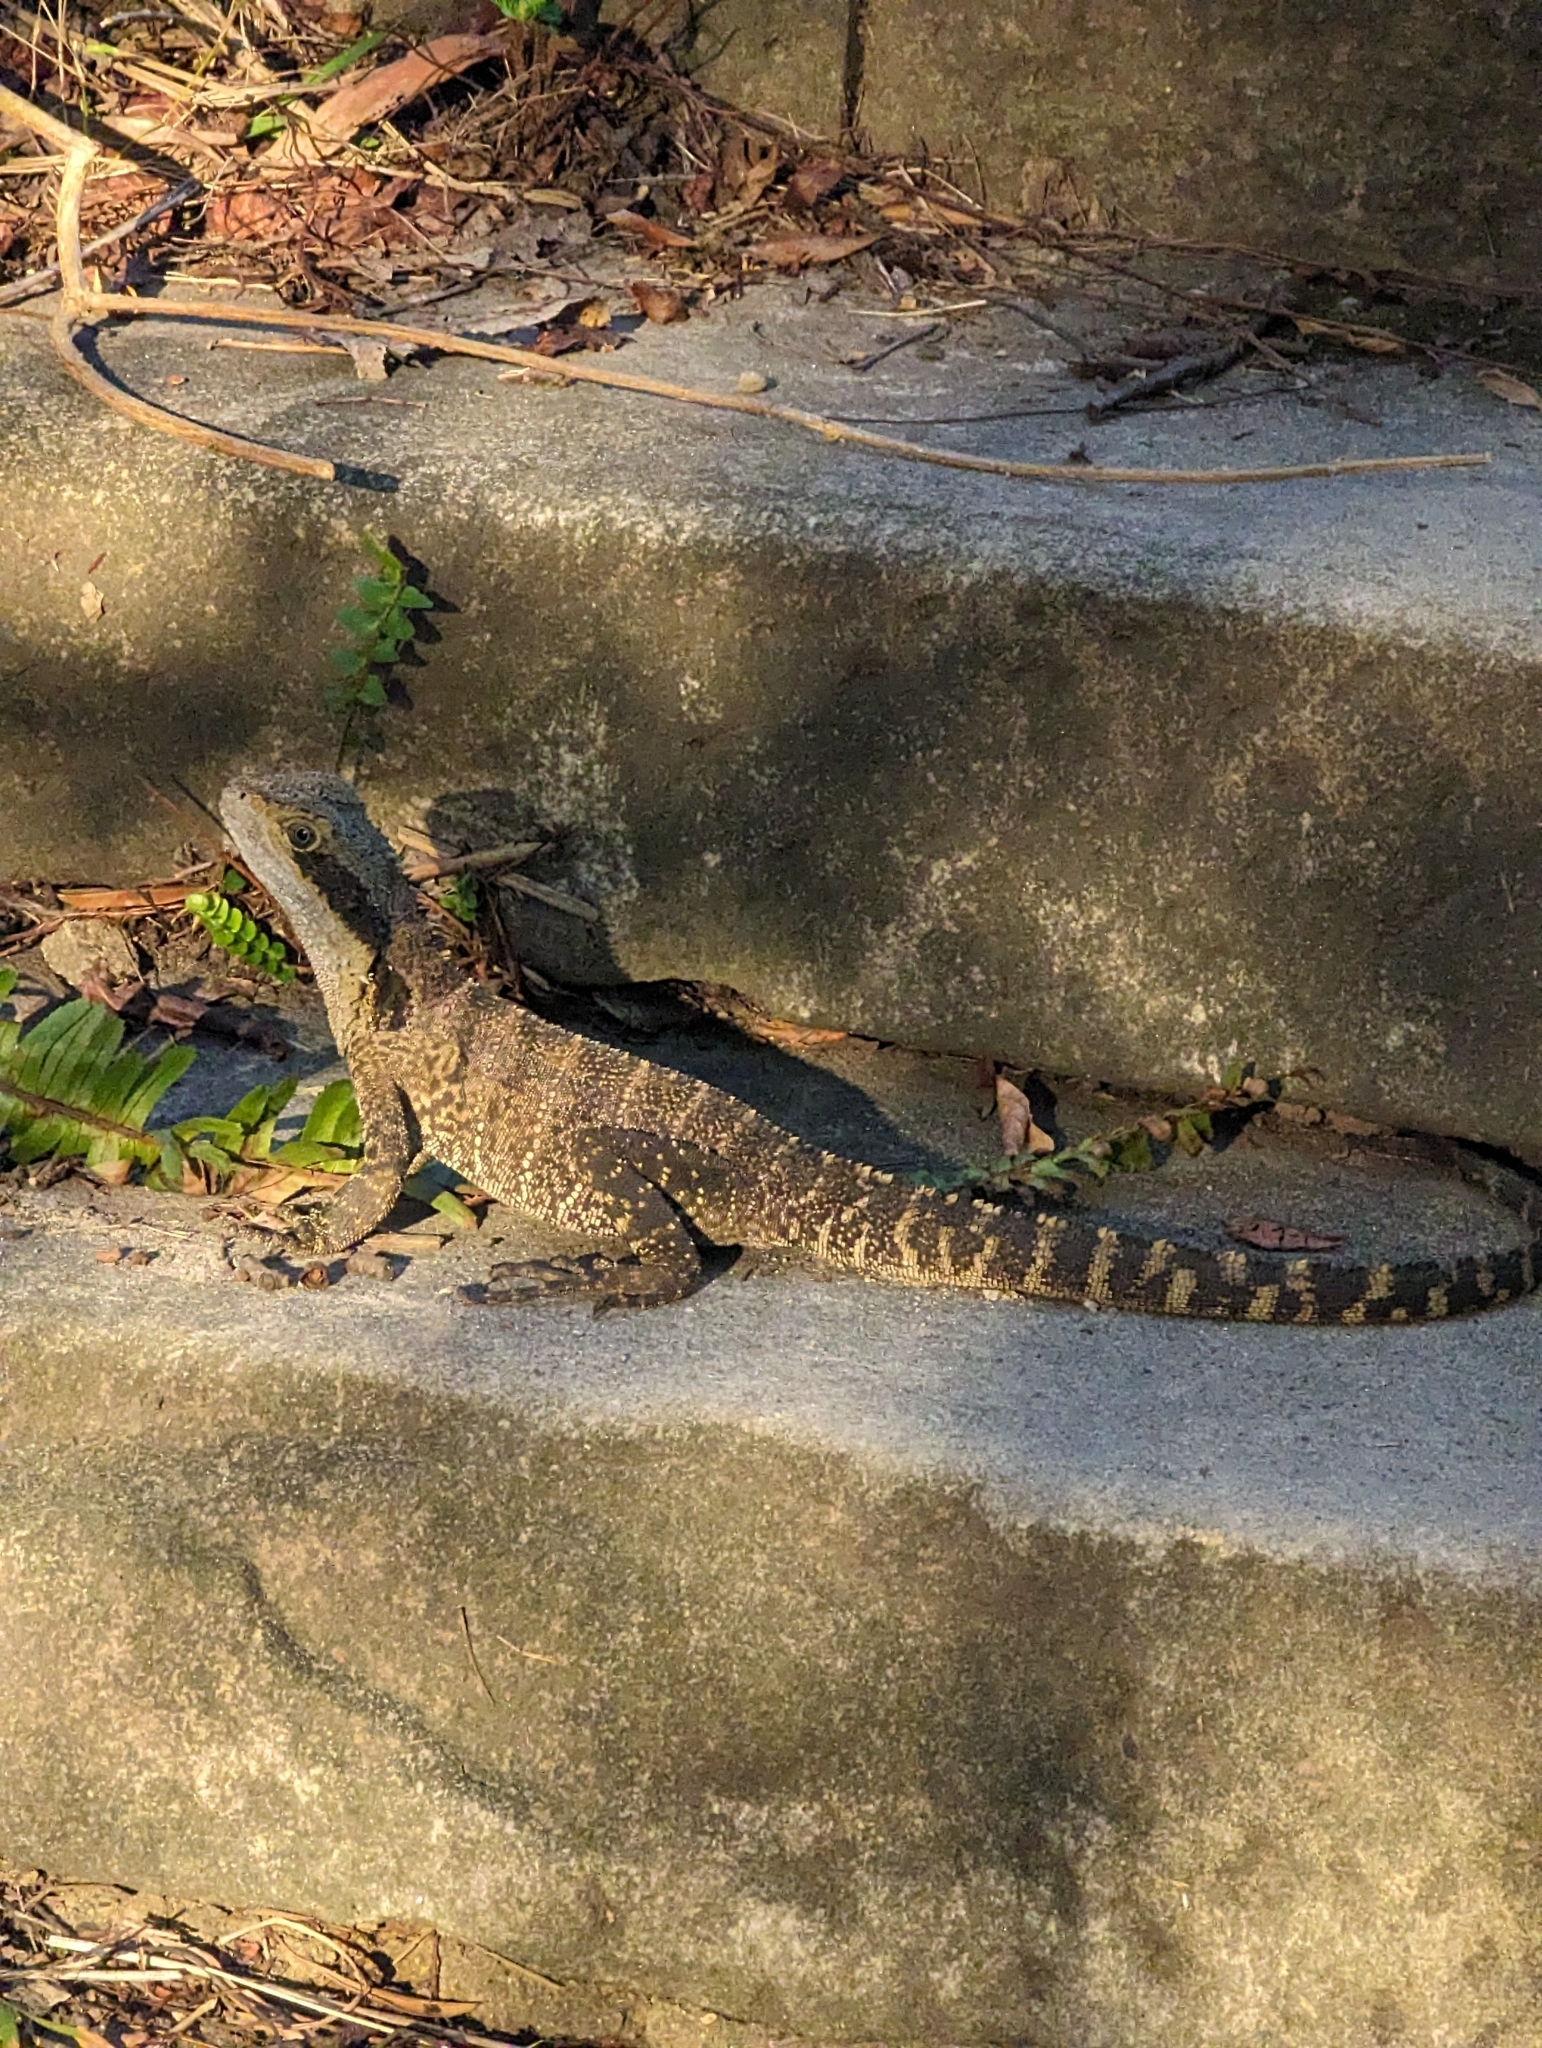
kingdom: Animalia
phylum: Chordata
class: Squamata
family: Agamidae
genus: Intellagama
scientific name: Intellagama lesueurii
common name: Eastern water dragon
